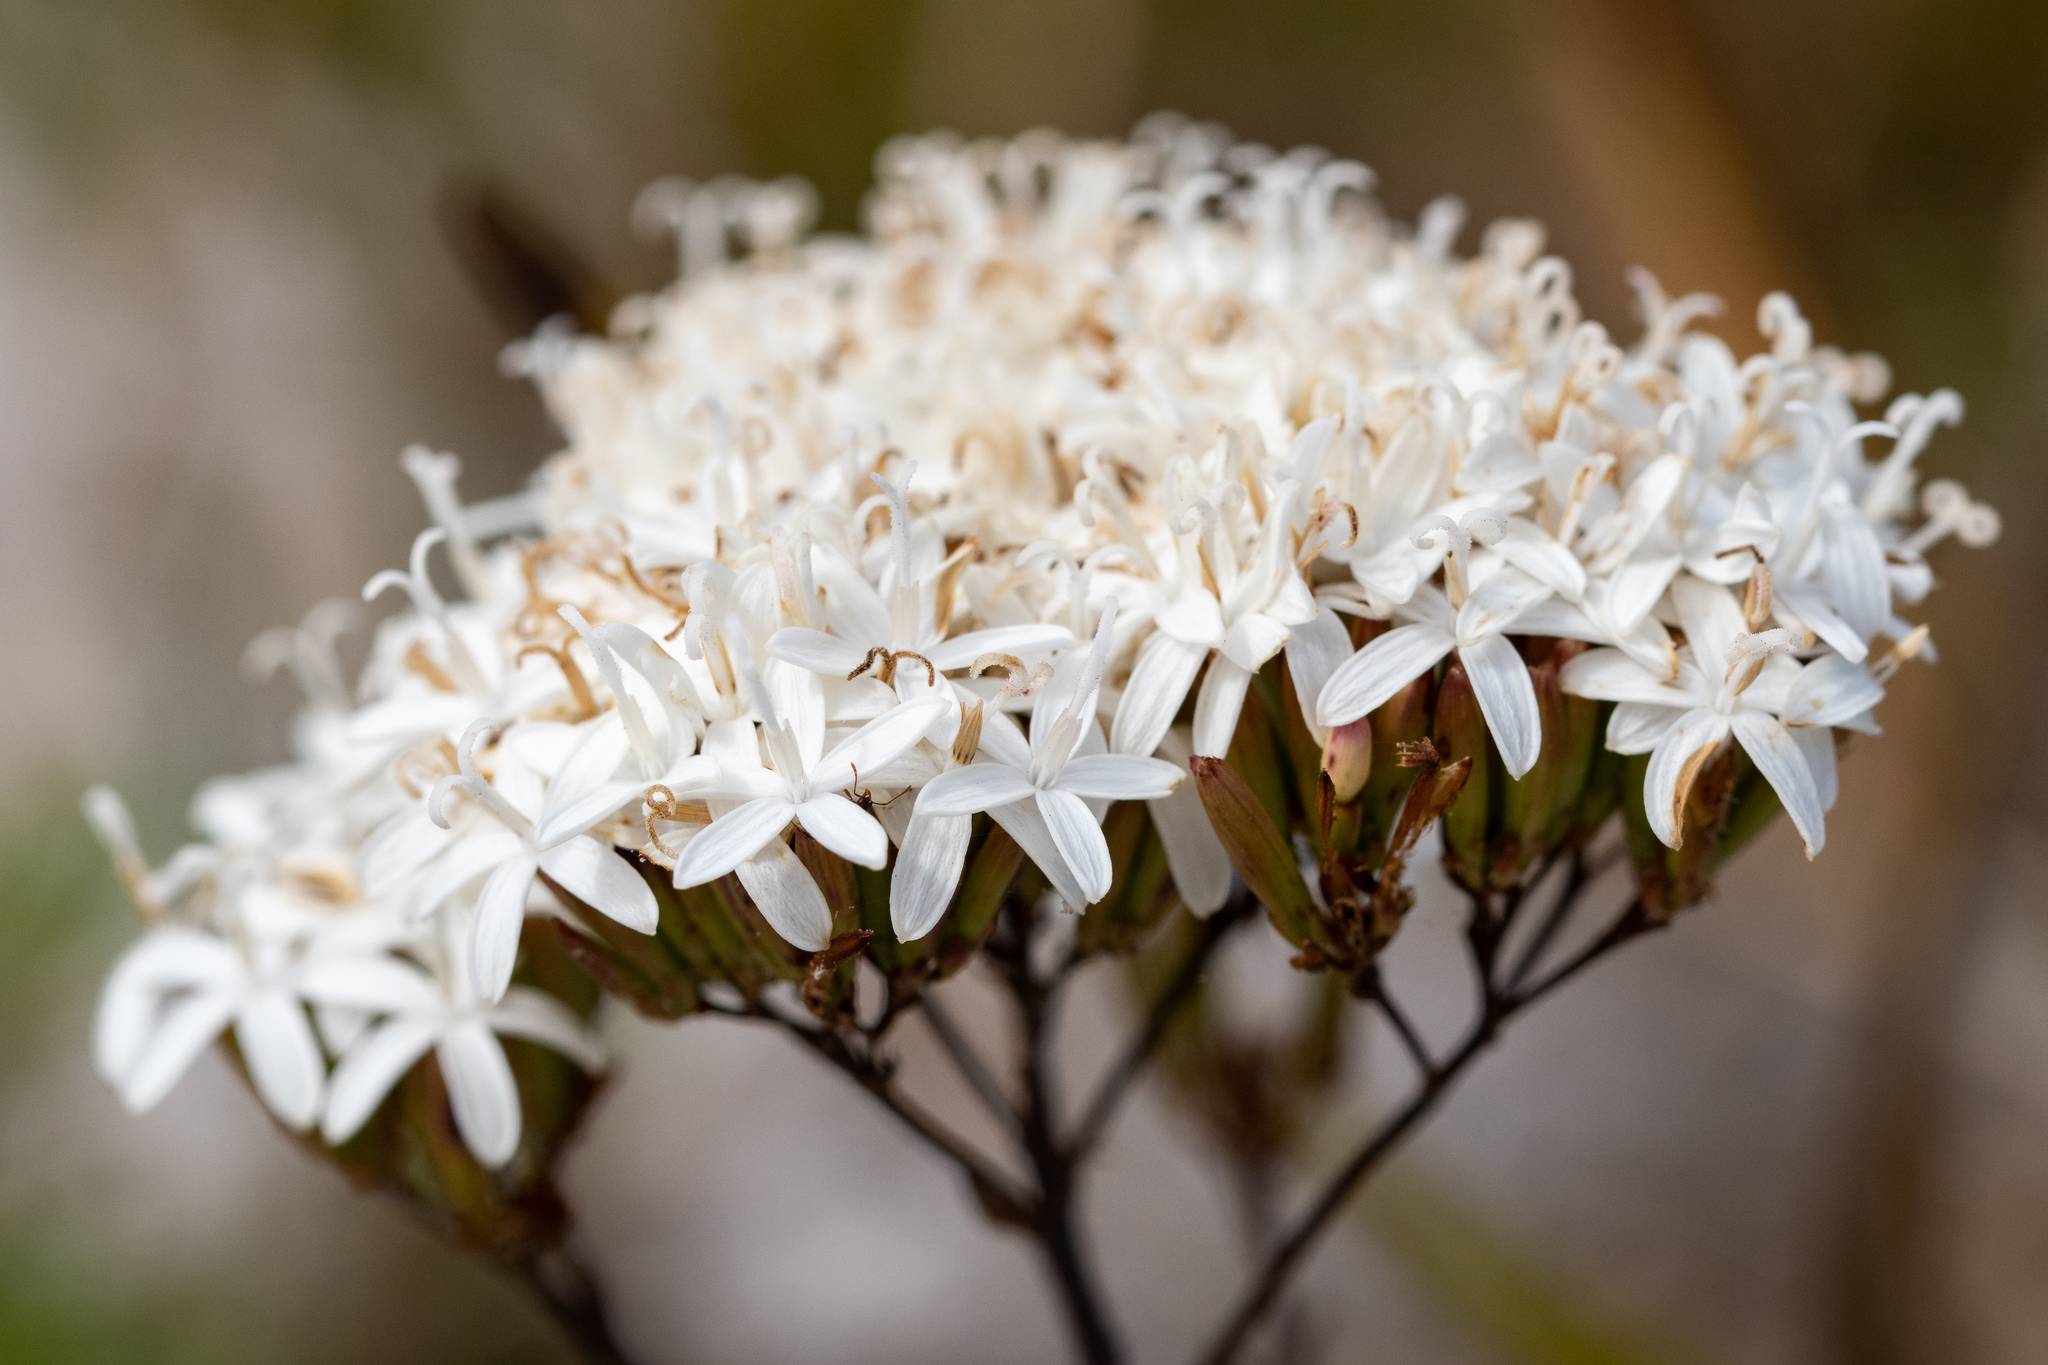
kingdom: Plantae
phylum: Tracheophyta
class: Magnoliopsida
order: Asterales
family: Asteraceae
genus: Corymbium
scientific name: Corymbium glabrum
